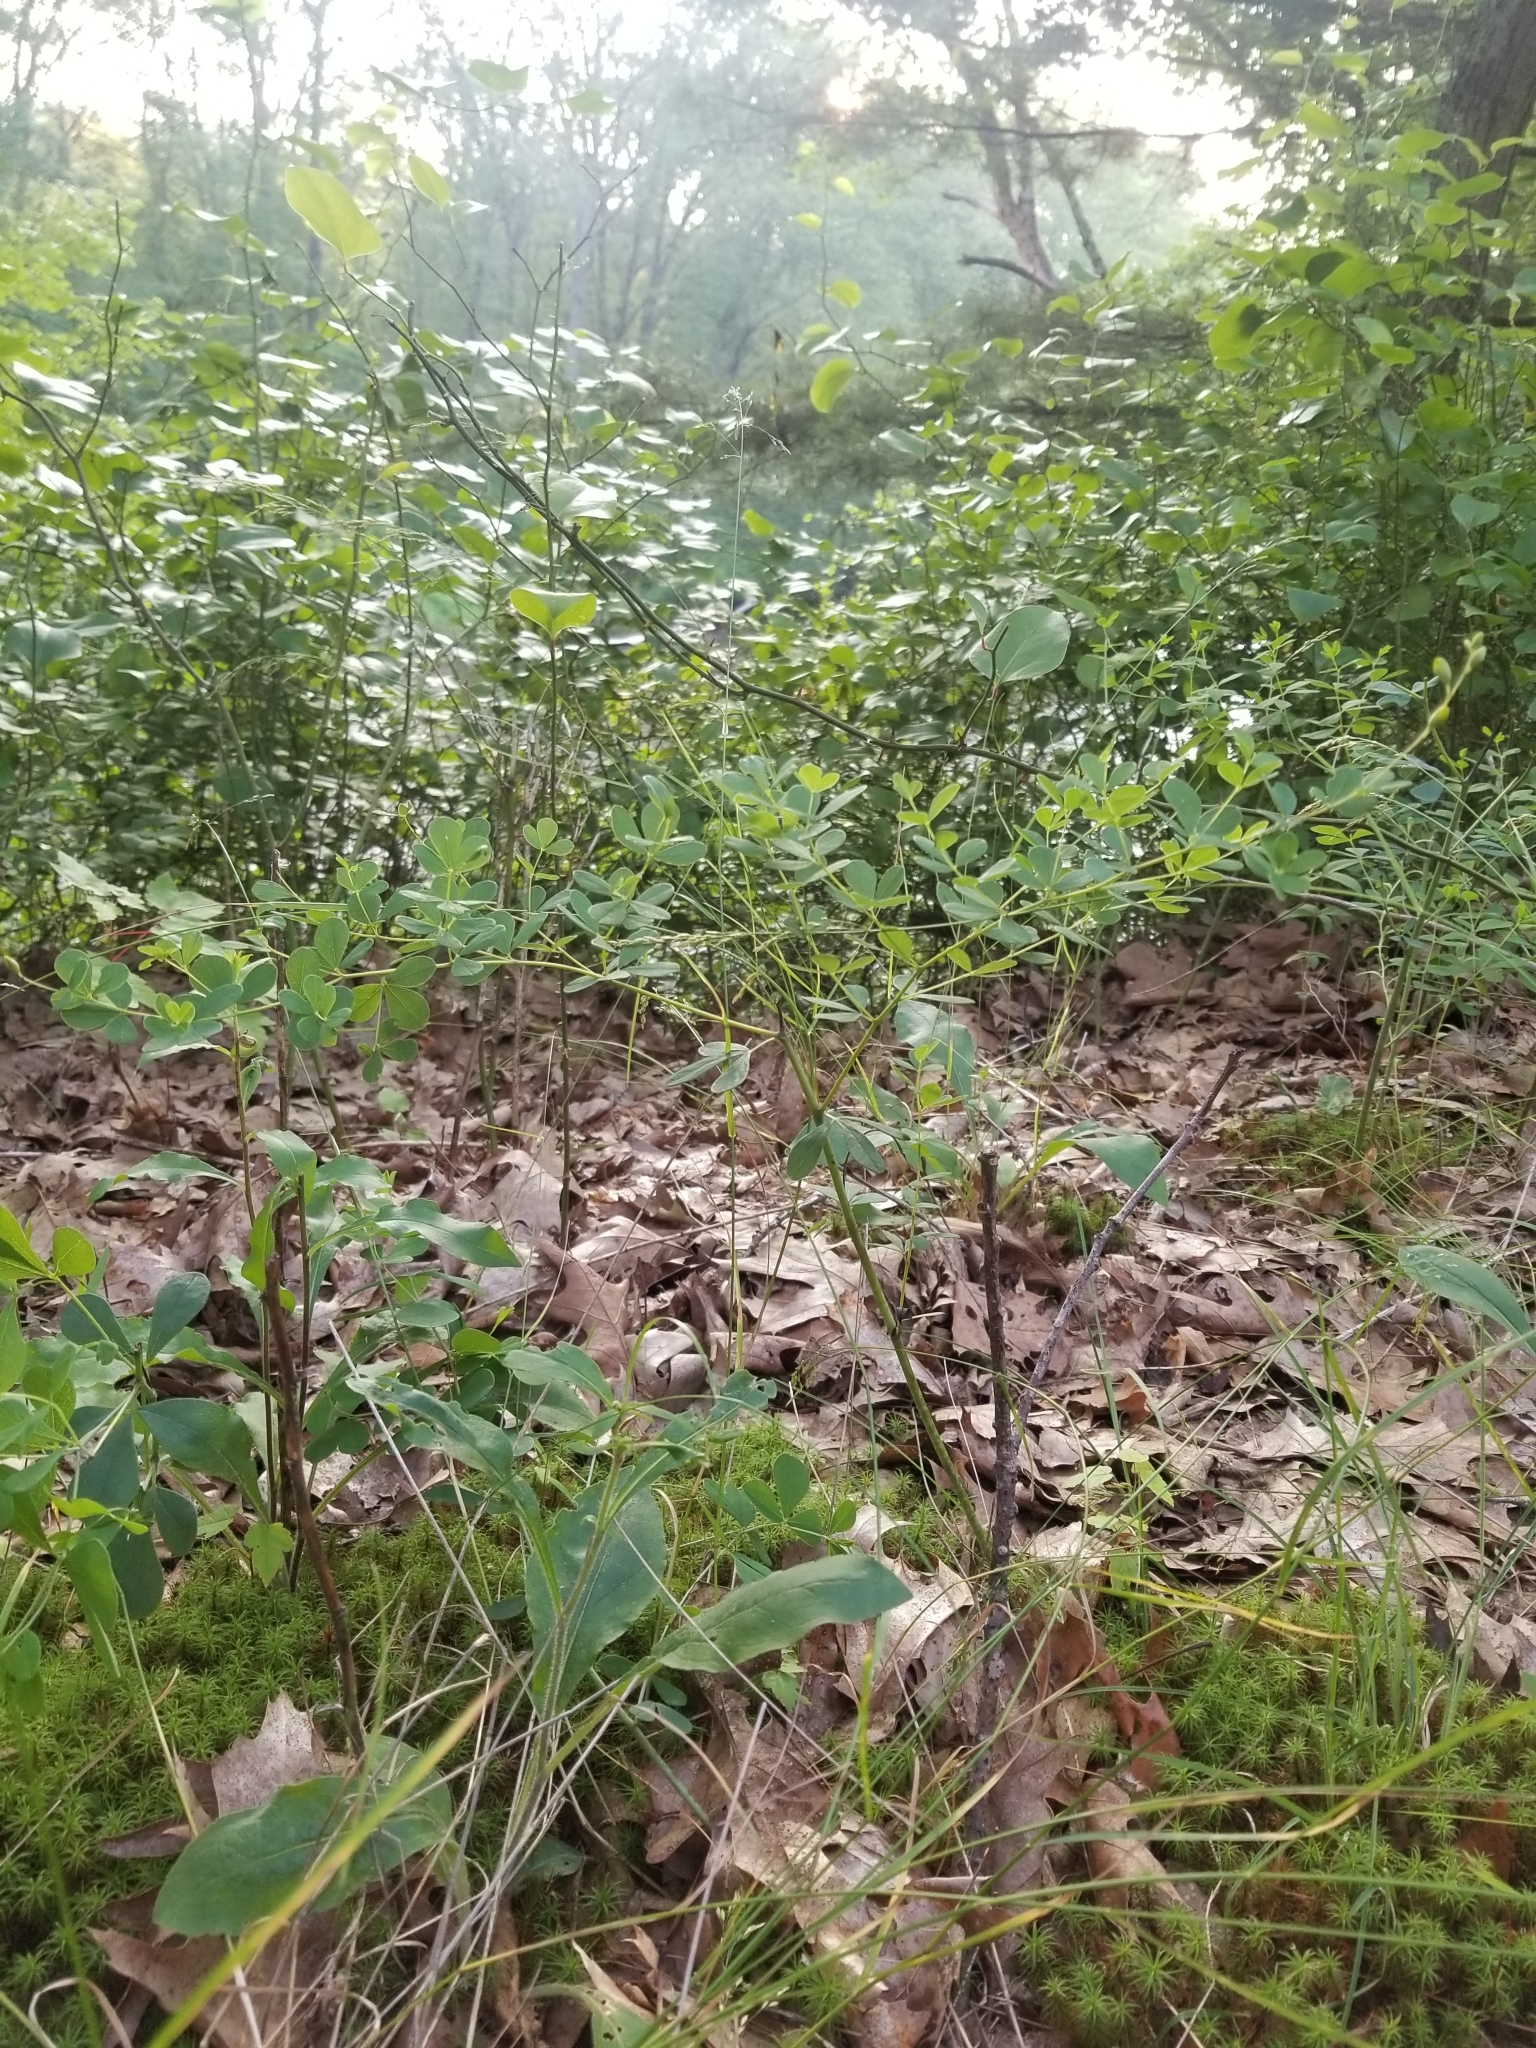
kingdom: Plantae
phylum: Tracheophyta
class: Magnoliopsida
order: Fabales
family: Fabaceae
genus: Baptisia
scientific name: Baptisia tinctoria
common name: Wild indigo
